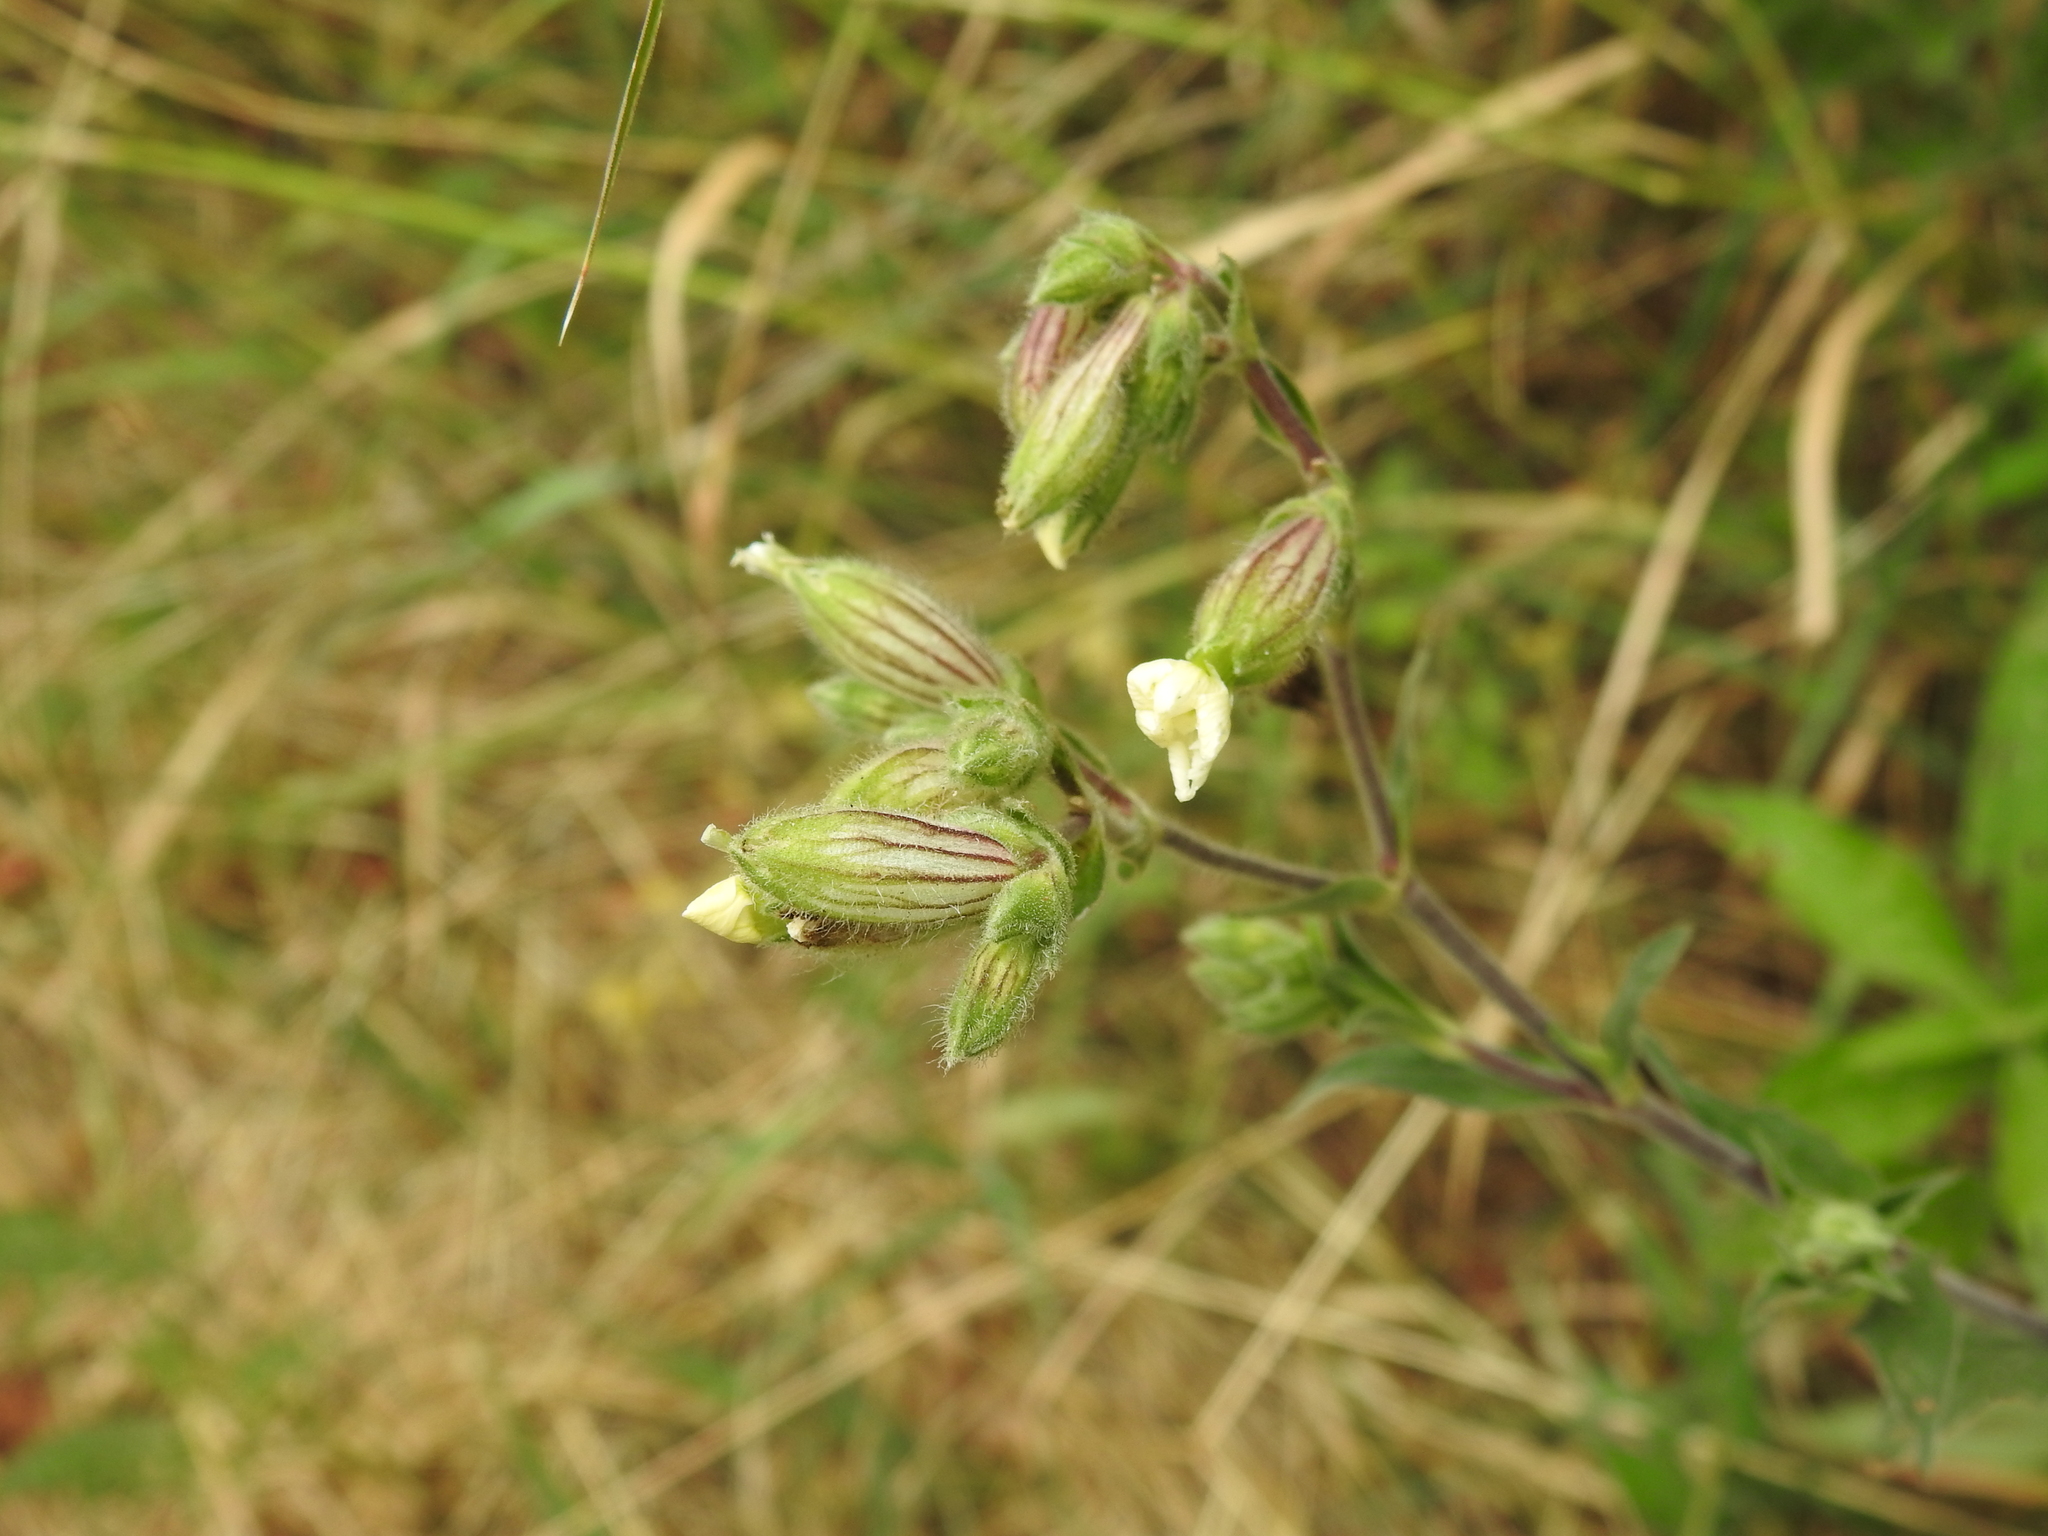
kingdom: Plantae
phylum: Tracheophyta
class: Magnoliopsida
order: Caryophyllales
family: Caryophyllaceae
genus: Silene
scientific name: Silene latifolia
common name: White campion
